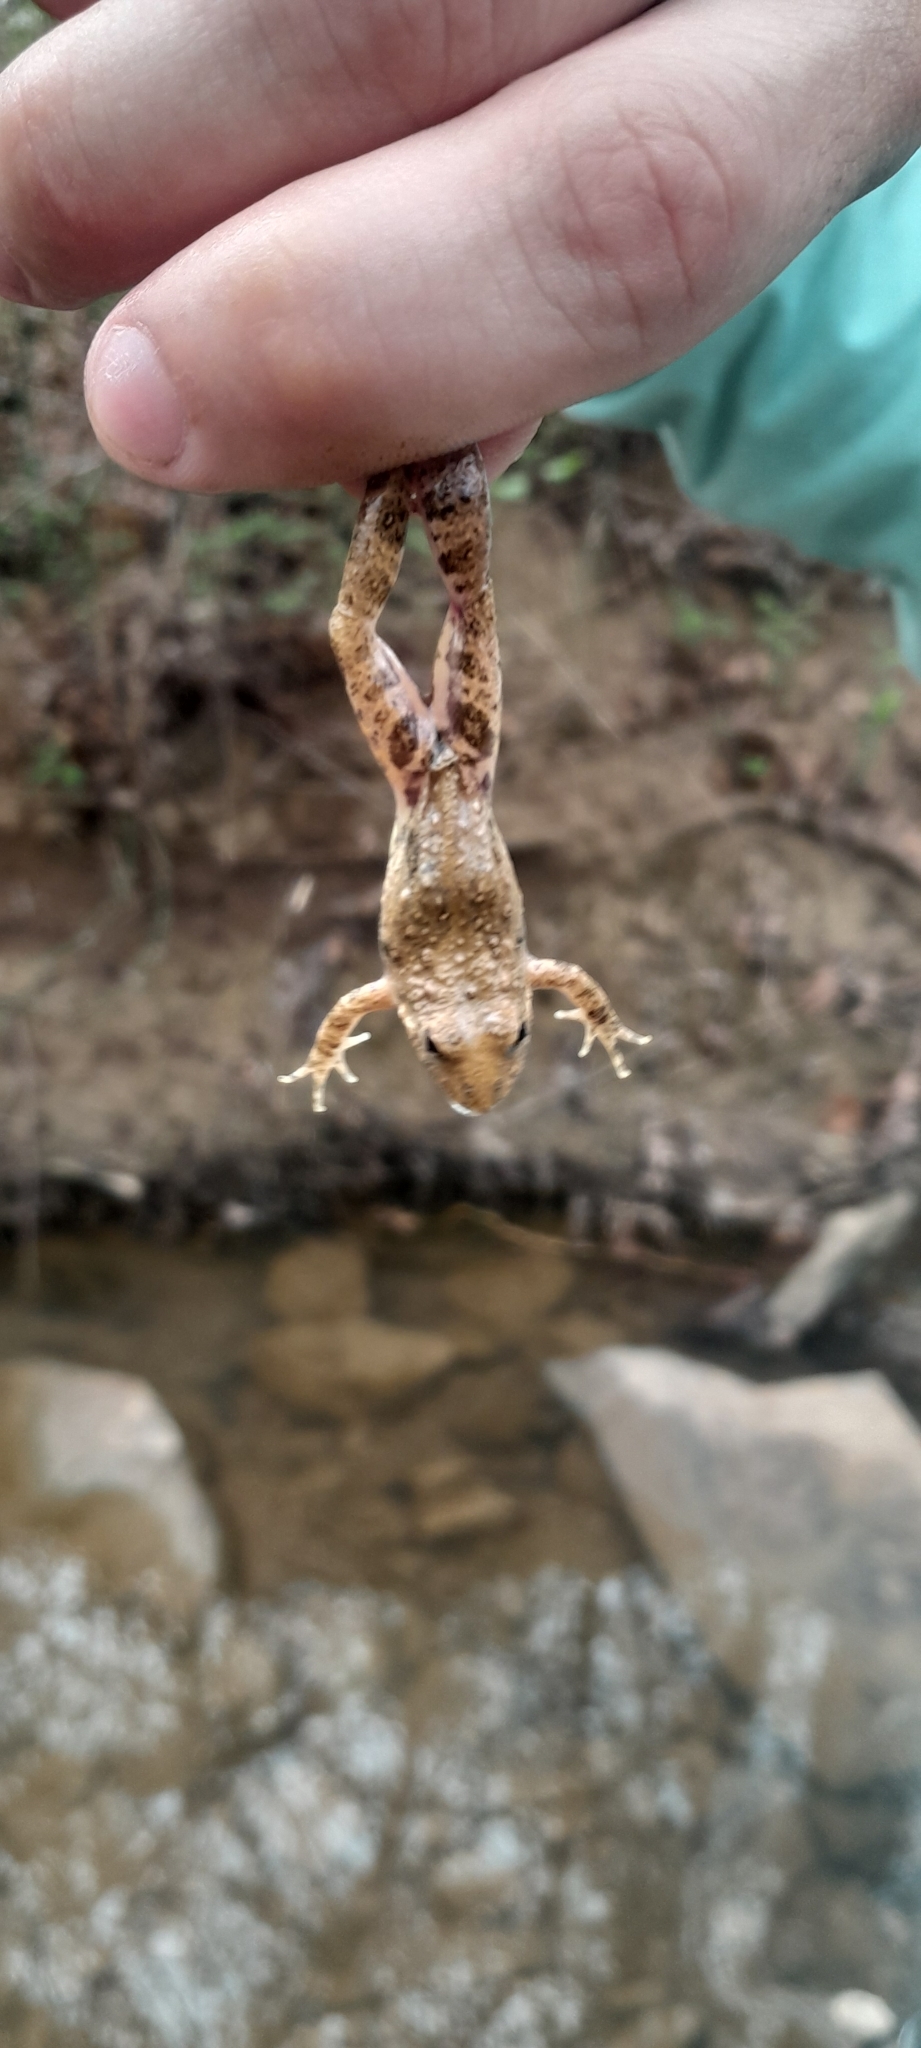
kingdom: Animalia
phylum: Chordata
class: Amphibia
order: Anura
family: Hylidae
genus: Acris
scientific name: Acris blanchardi
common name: Blanchard's cricket frog
